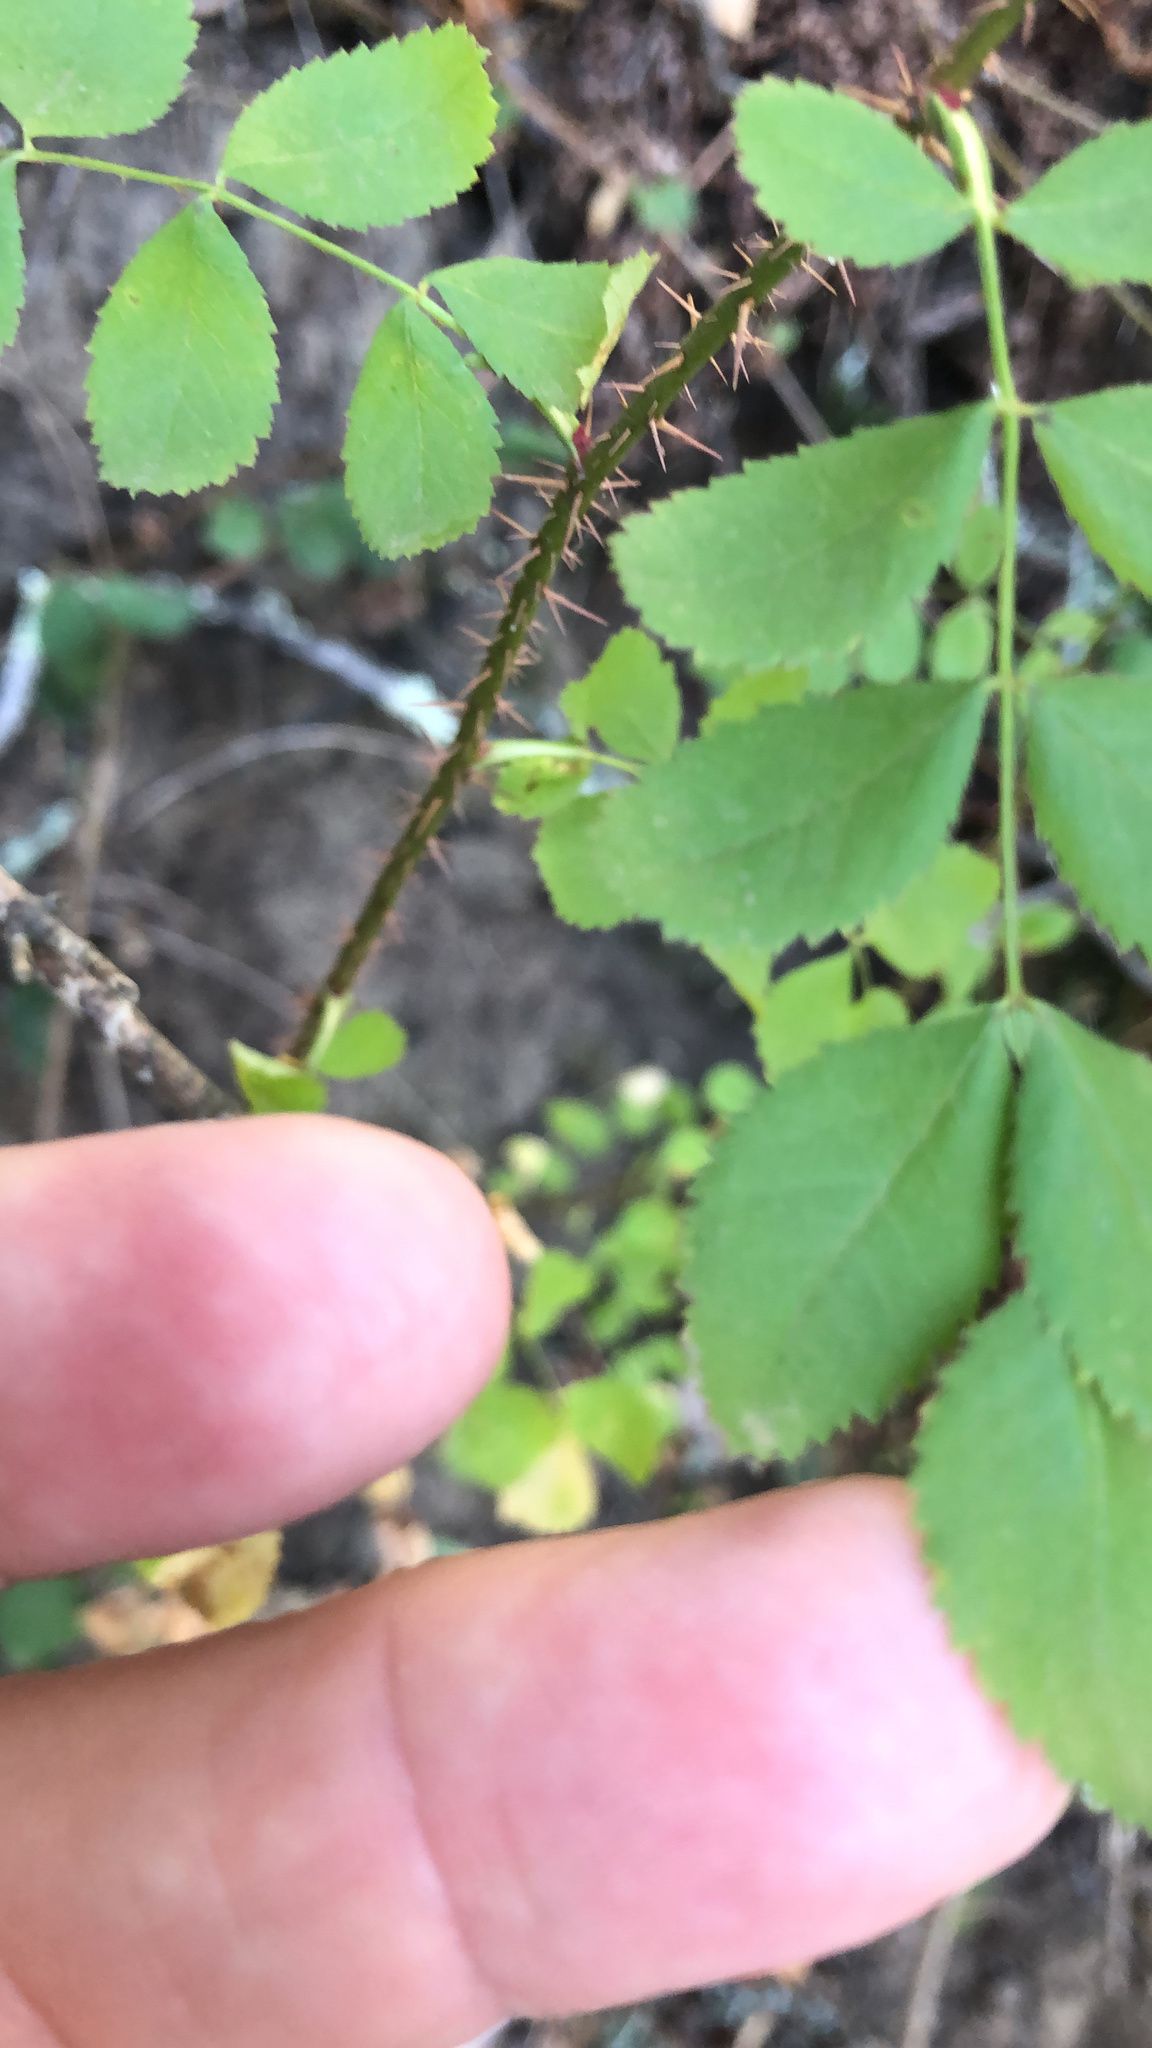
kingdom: Plantae
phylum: Tracheophyta
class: Magnoliopsida
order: Rosales
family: Rosaceae
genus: Rosa
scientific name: Rosa gymnocarpa
